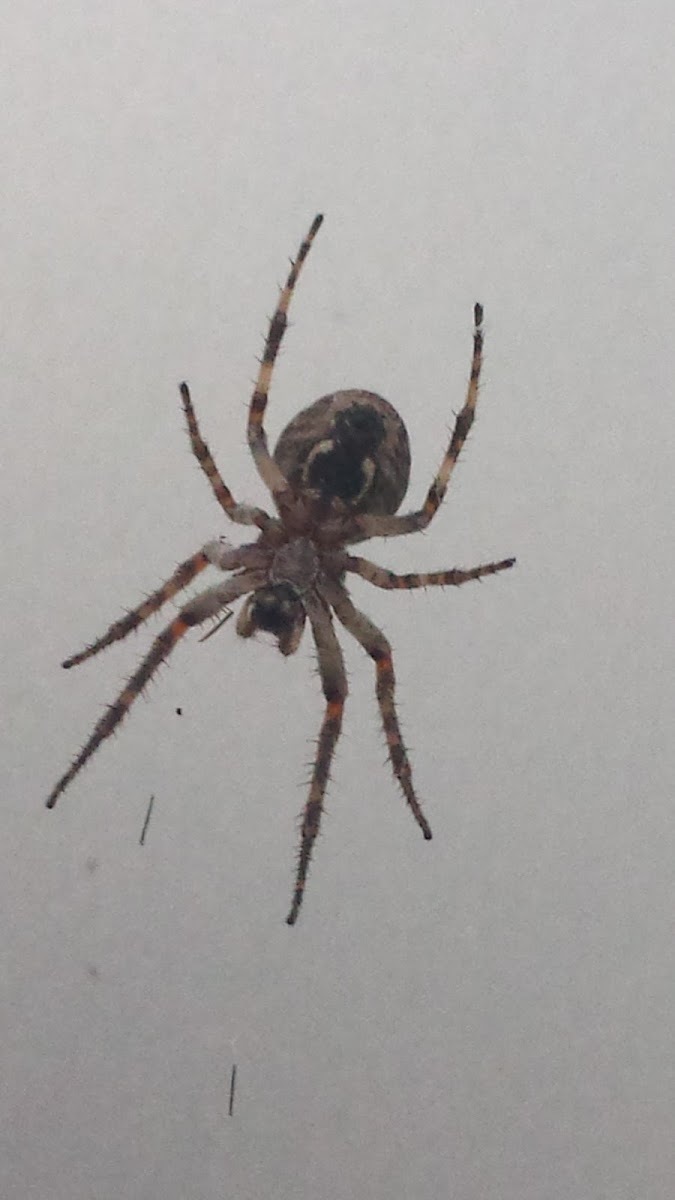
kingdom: Animalia
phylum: Arthropoda
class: Arachnida
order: Araneae
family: Araneidae
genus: Larinioides
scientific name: Larinioides sclopetarius
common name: Bridge orbweaver
